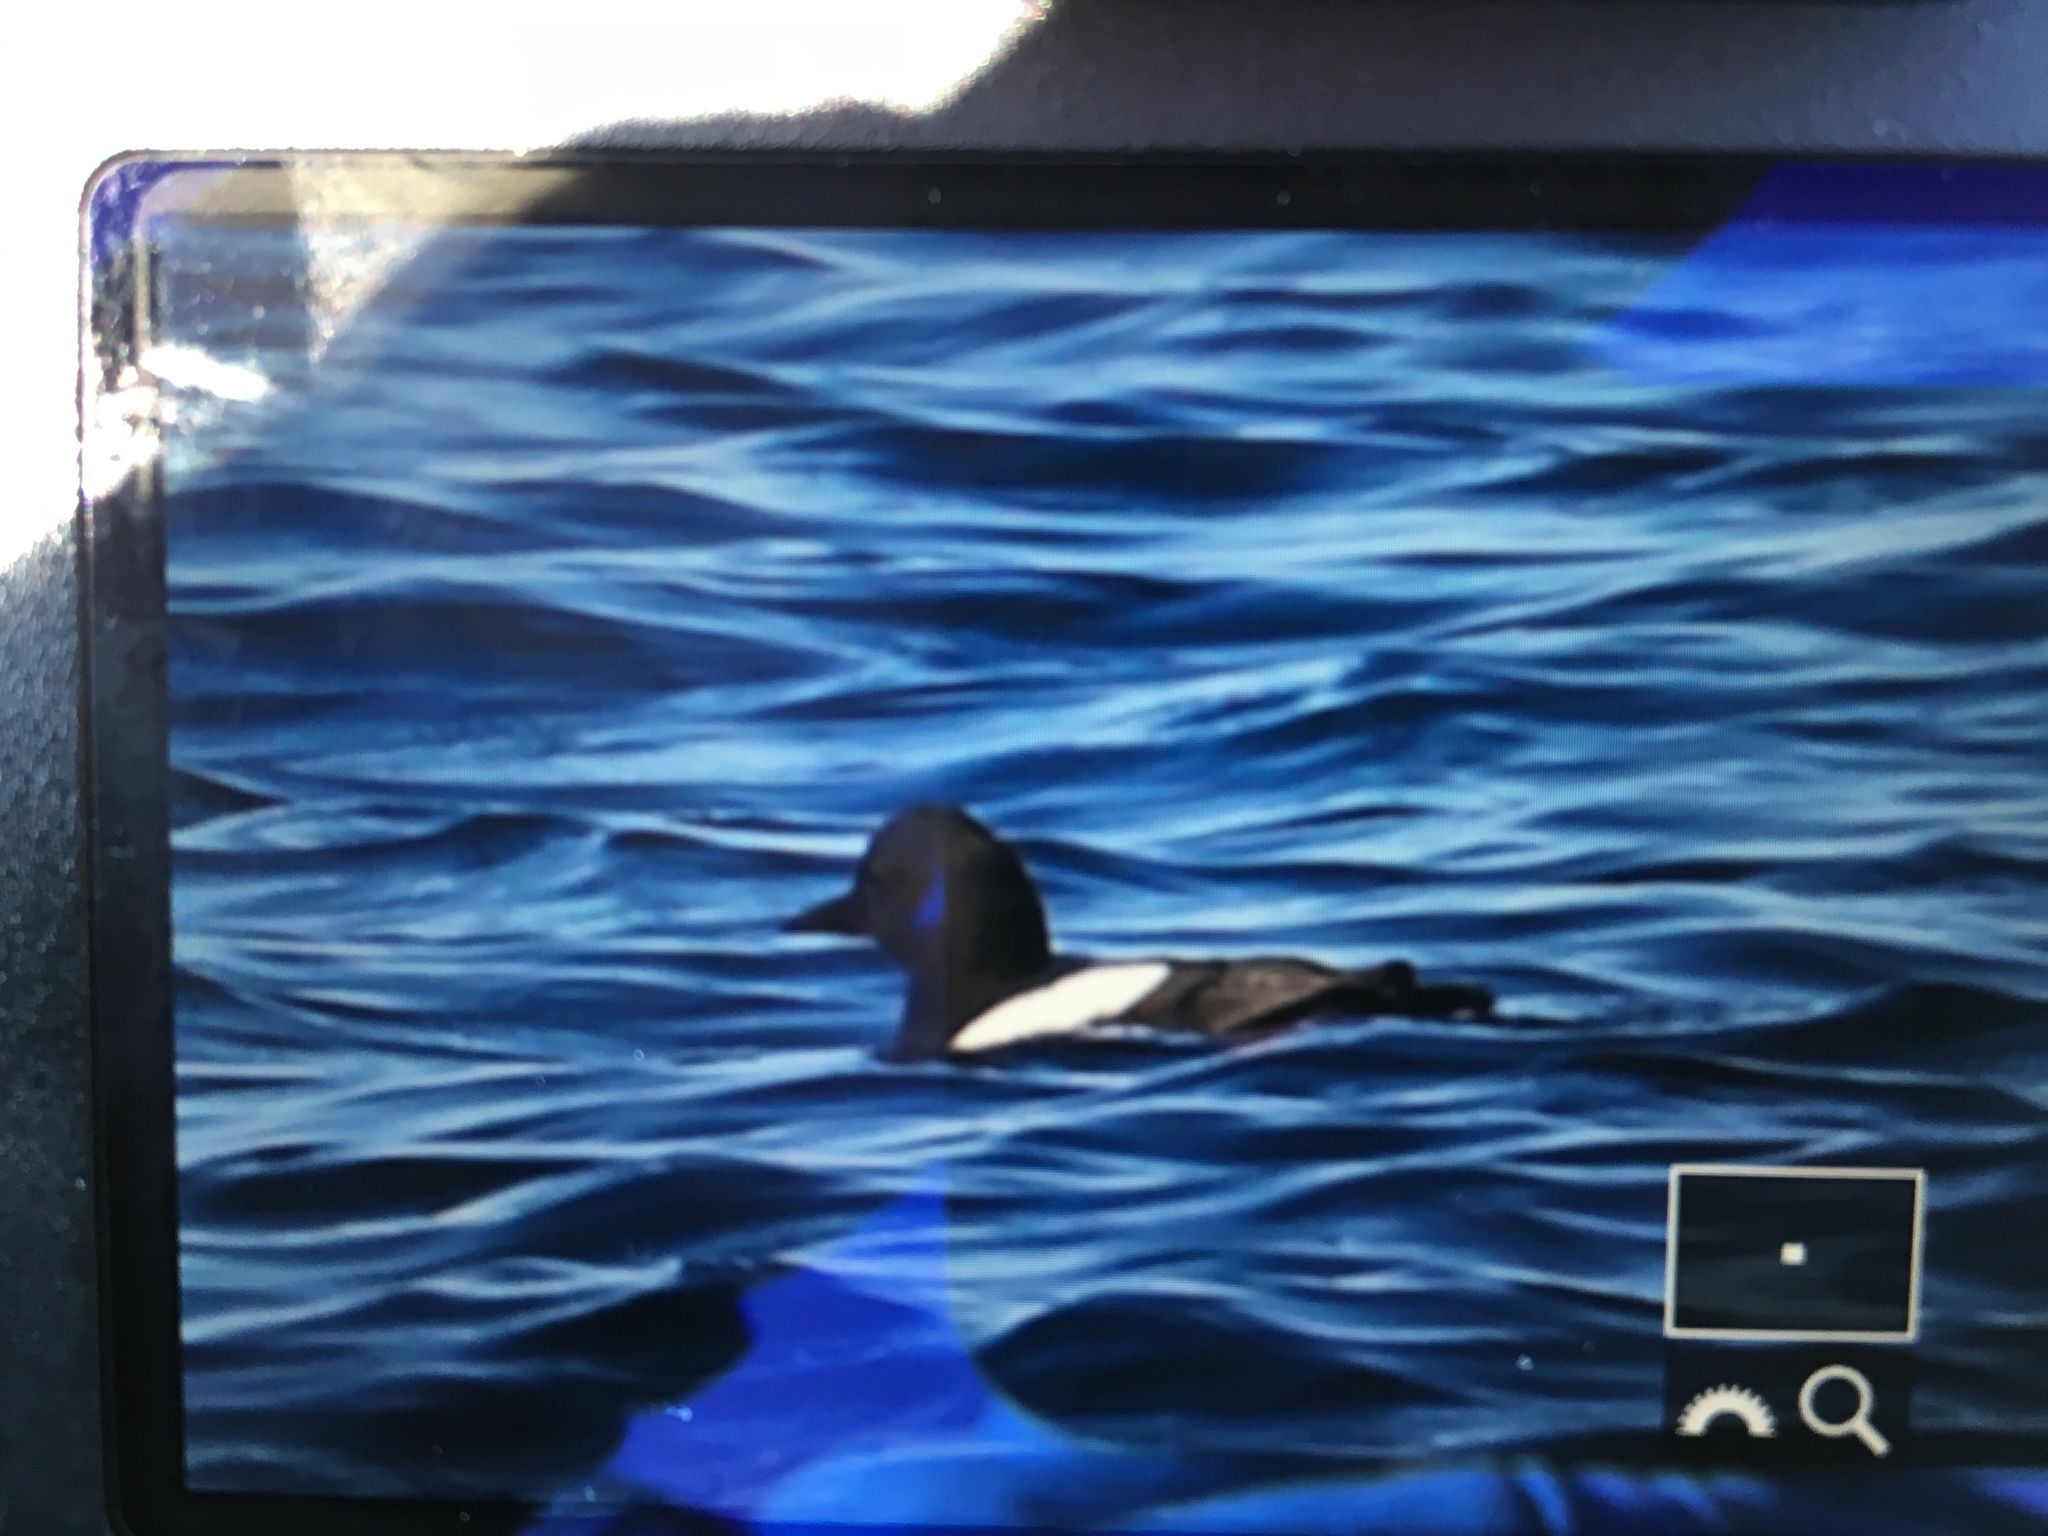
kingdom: Animalia
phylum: Chordata
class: Aves
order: Charadriiformes
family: Alcidae
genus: Cepphus
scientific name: Cepphus columba
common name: Pigeon guillemot
